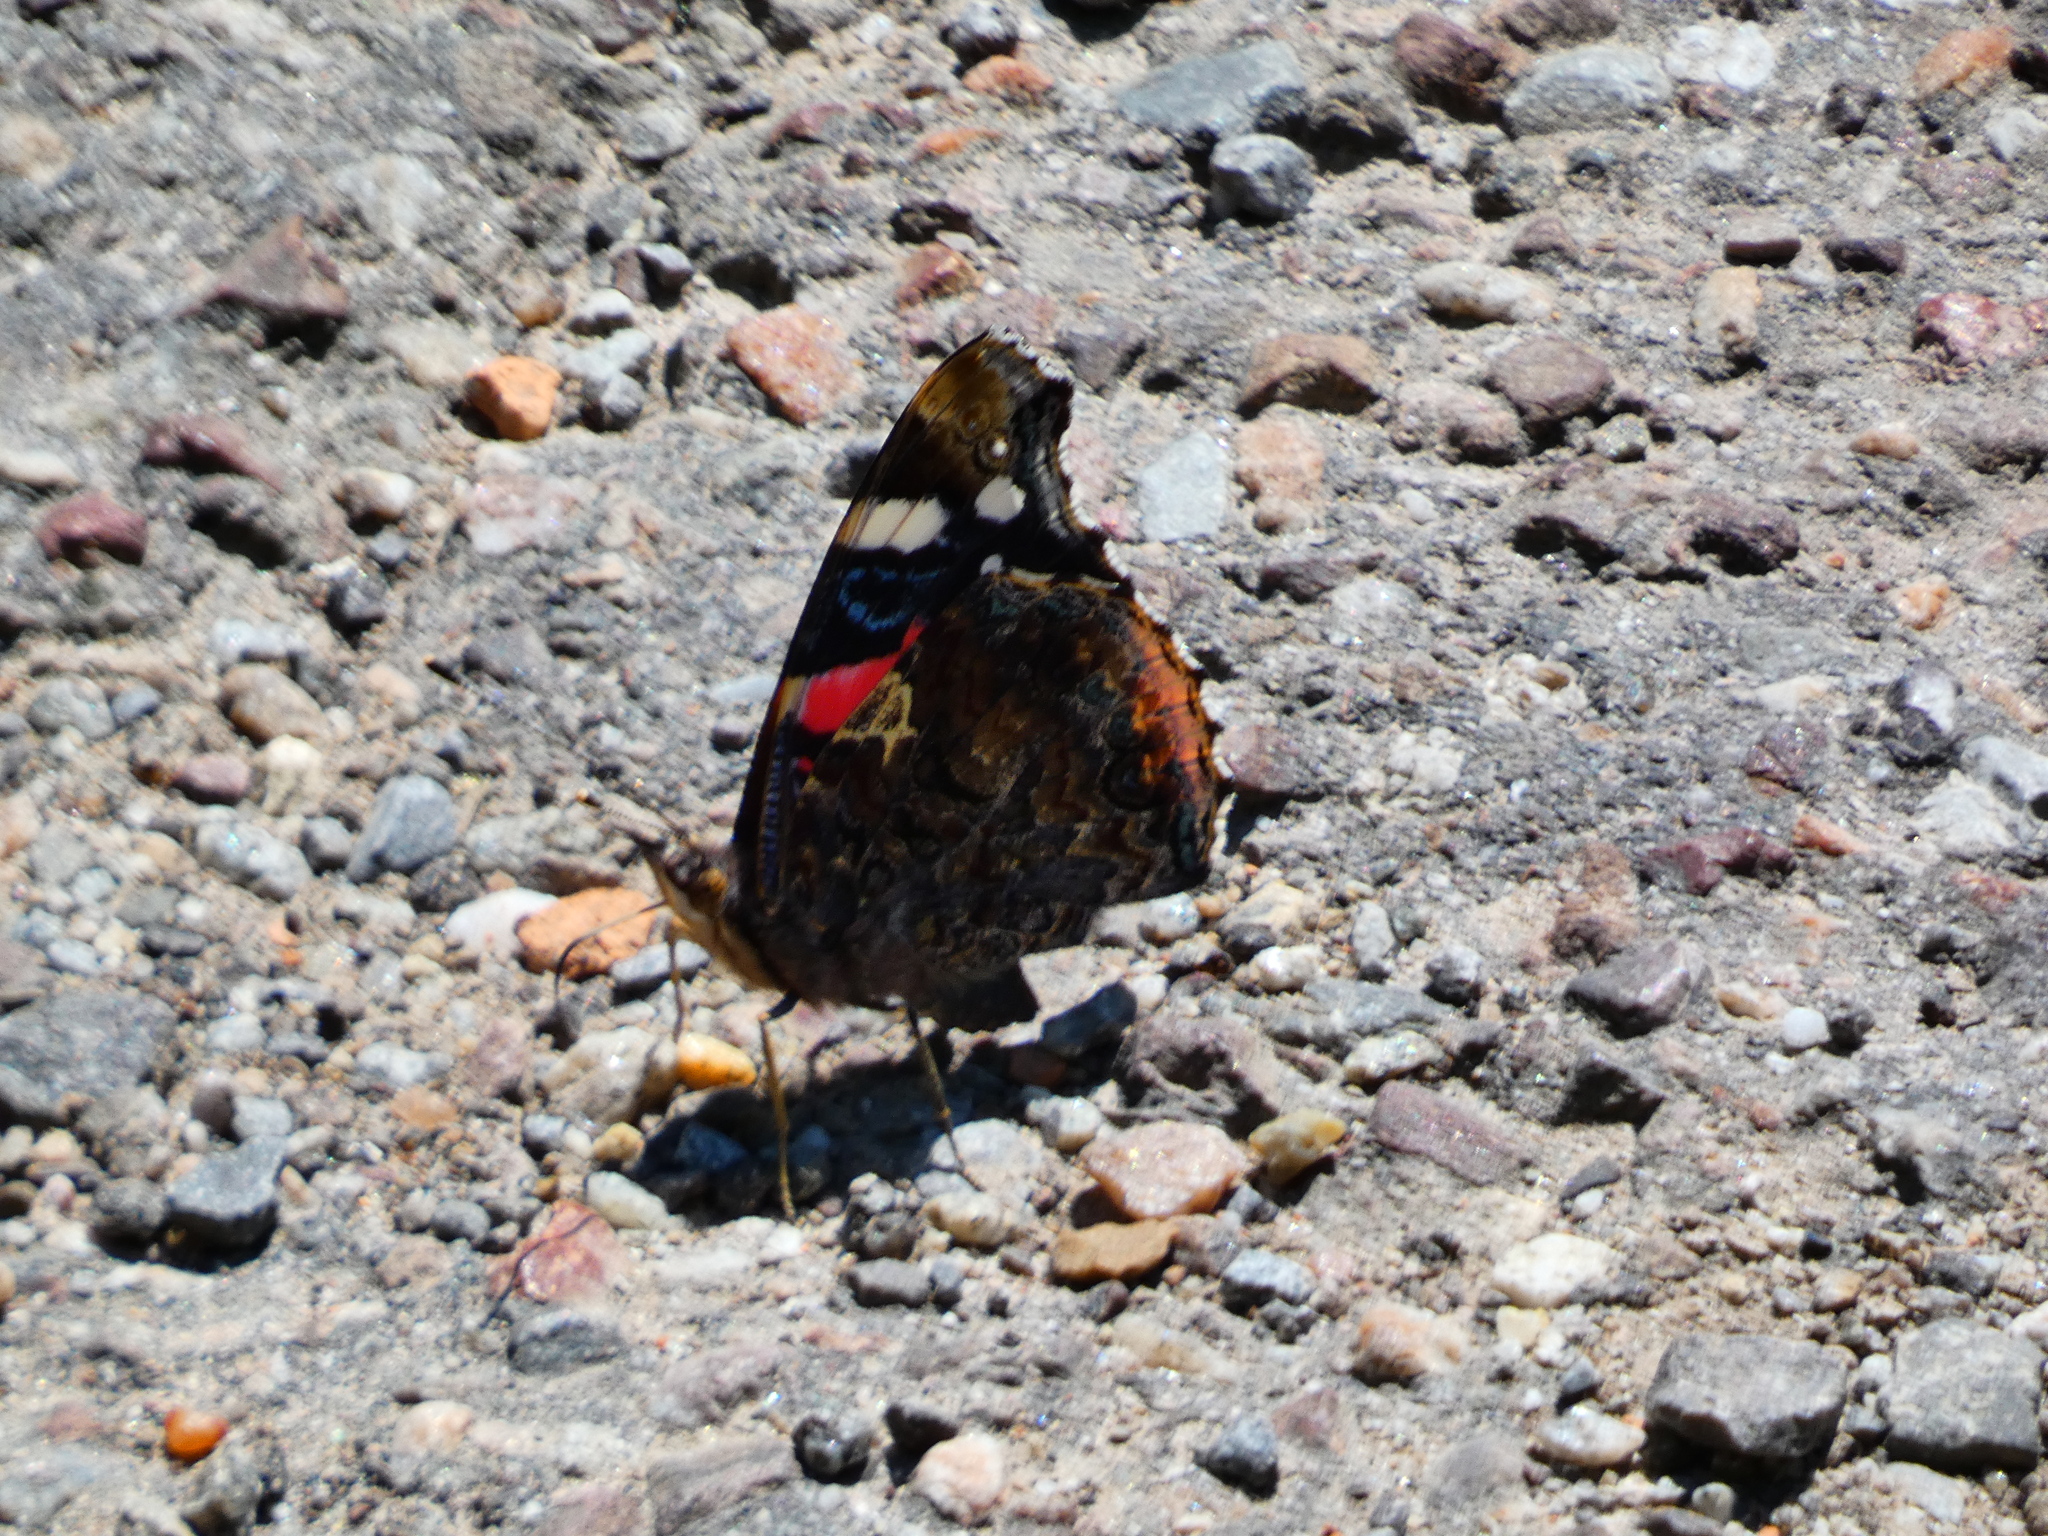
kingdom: Animalia
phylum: Arthropoda
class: Insecta
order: Lepidoptera
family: Nymphalidae
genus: Vanessa
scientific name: Vanessa atalanta
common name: Red admiral
